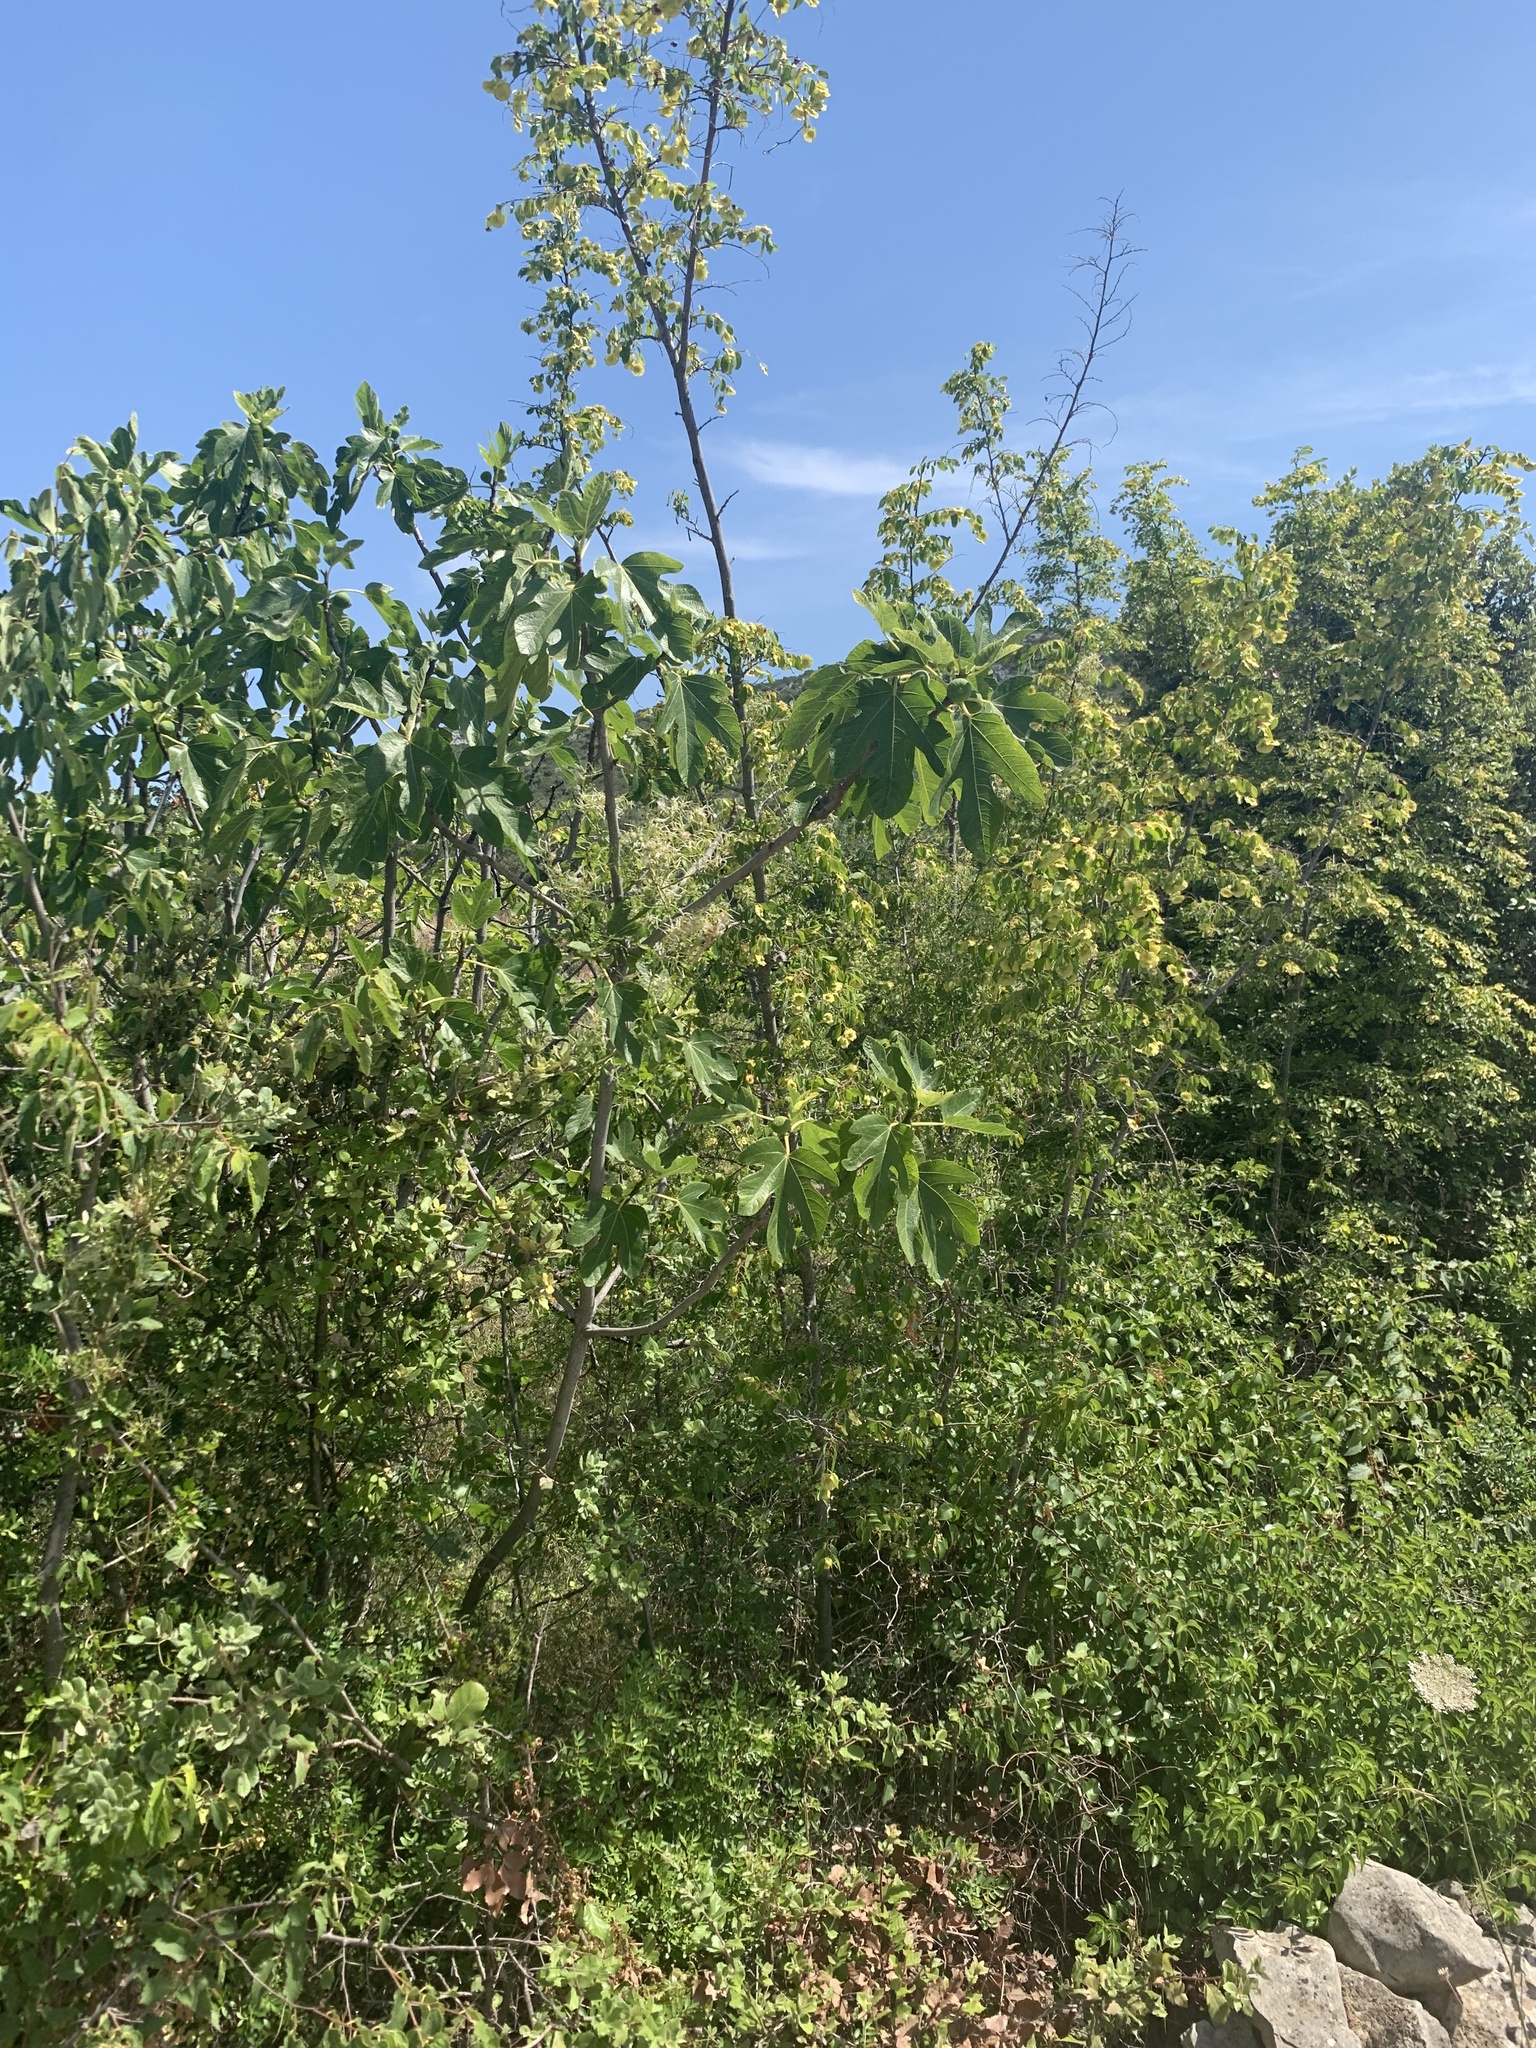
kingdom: Plantae
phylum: Tracheophyta
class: Magnoliopsida
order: Rosales
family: Moraceae
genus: Ficus
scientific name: Ficus carica
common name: Fig
